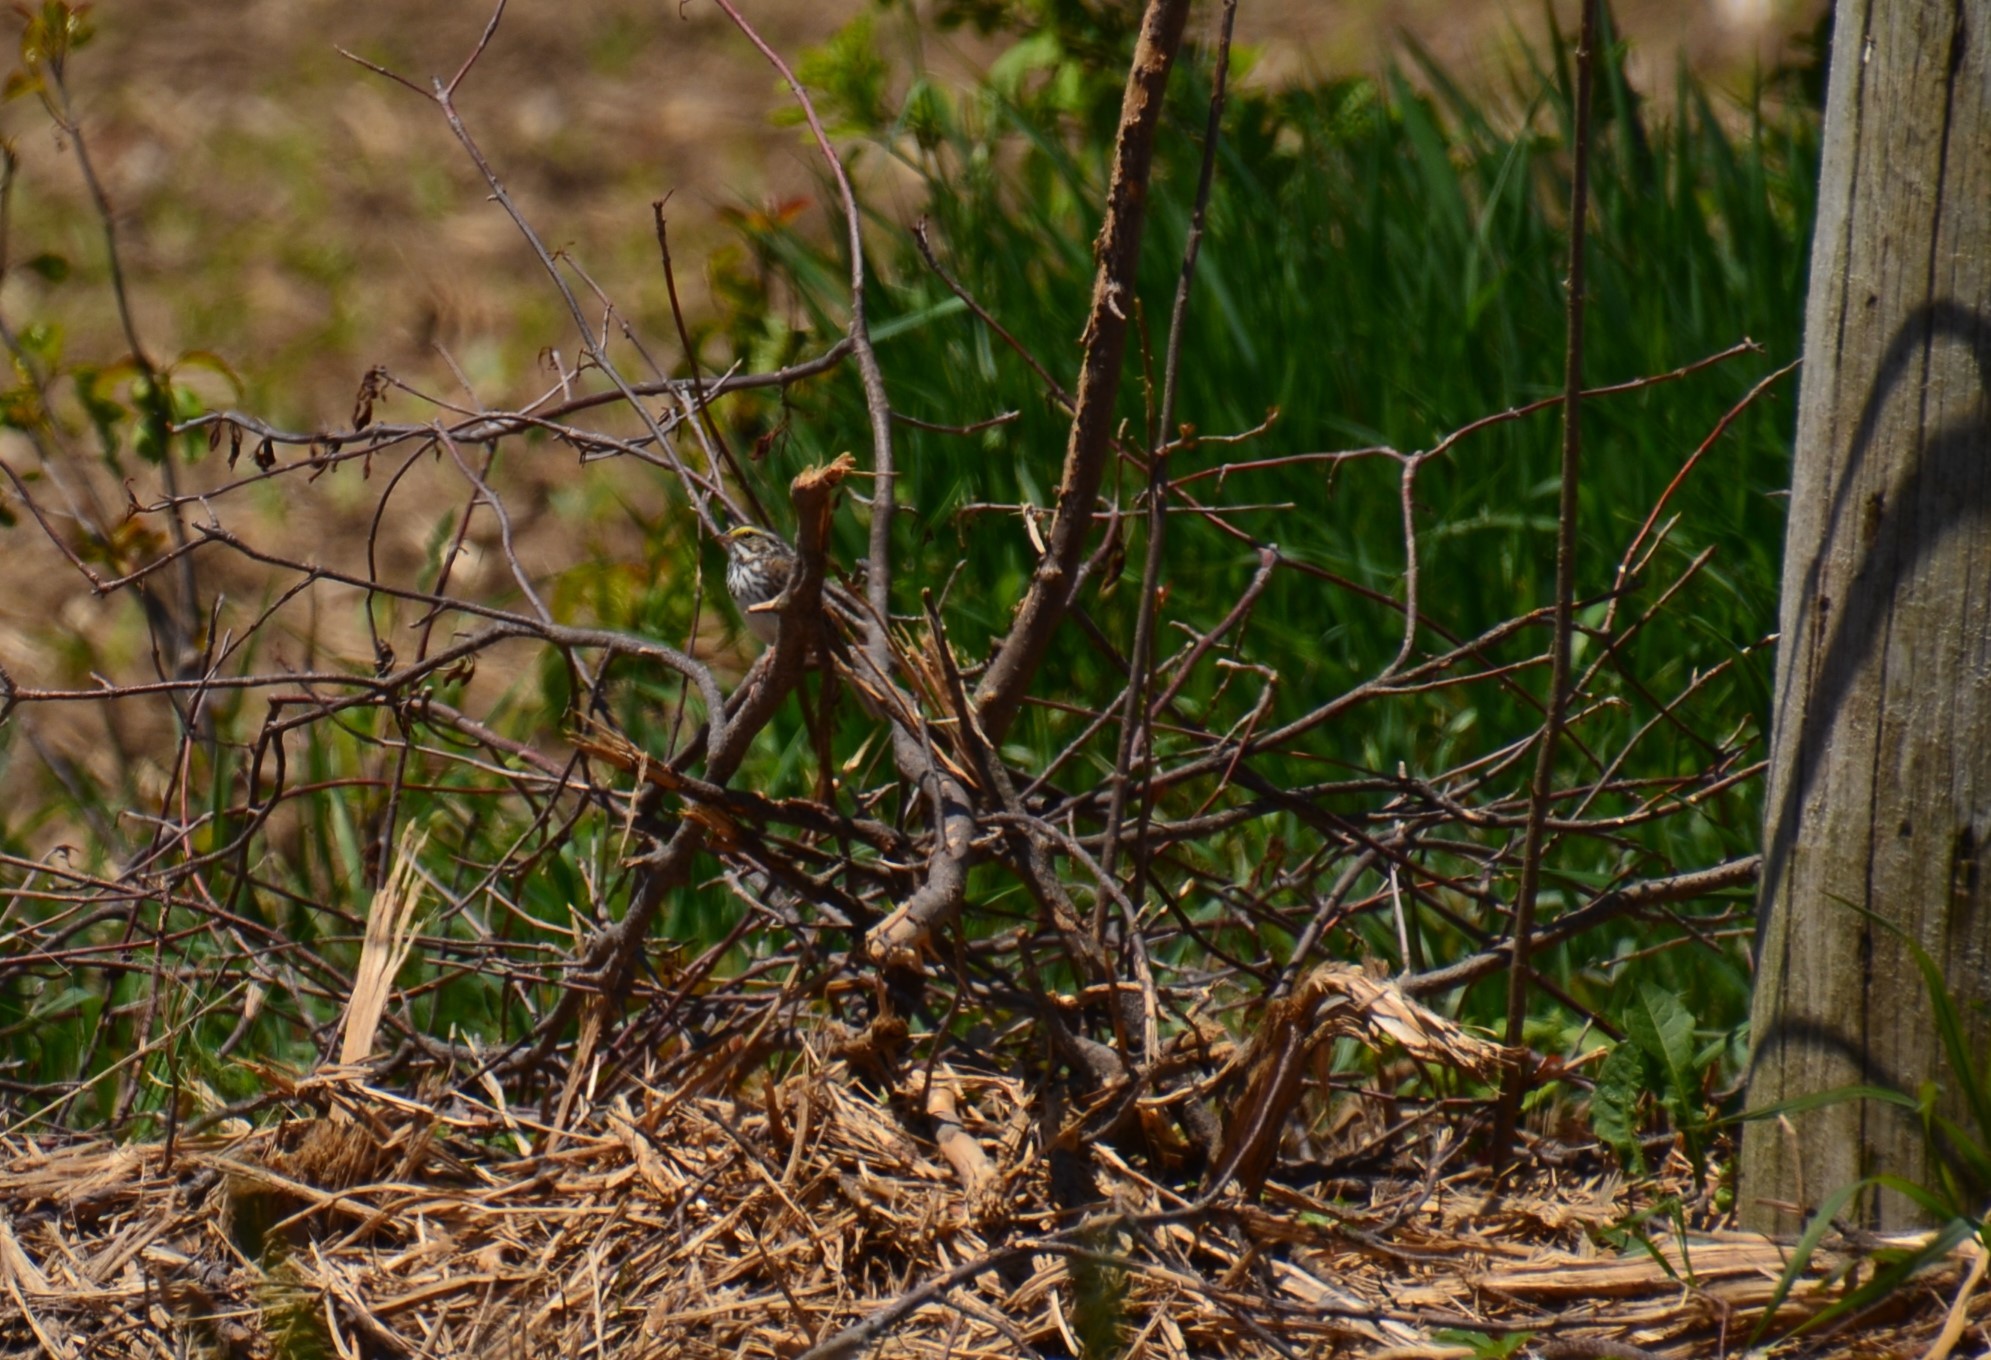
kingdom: Animalia
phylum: Chordata
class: Aves
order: Passeriformes
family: Passerellidae
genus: Passerculus
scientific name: Passerculus sandwichensis
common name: Savannah sparrow
